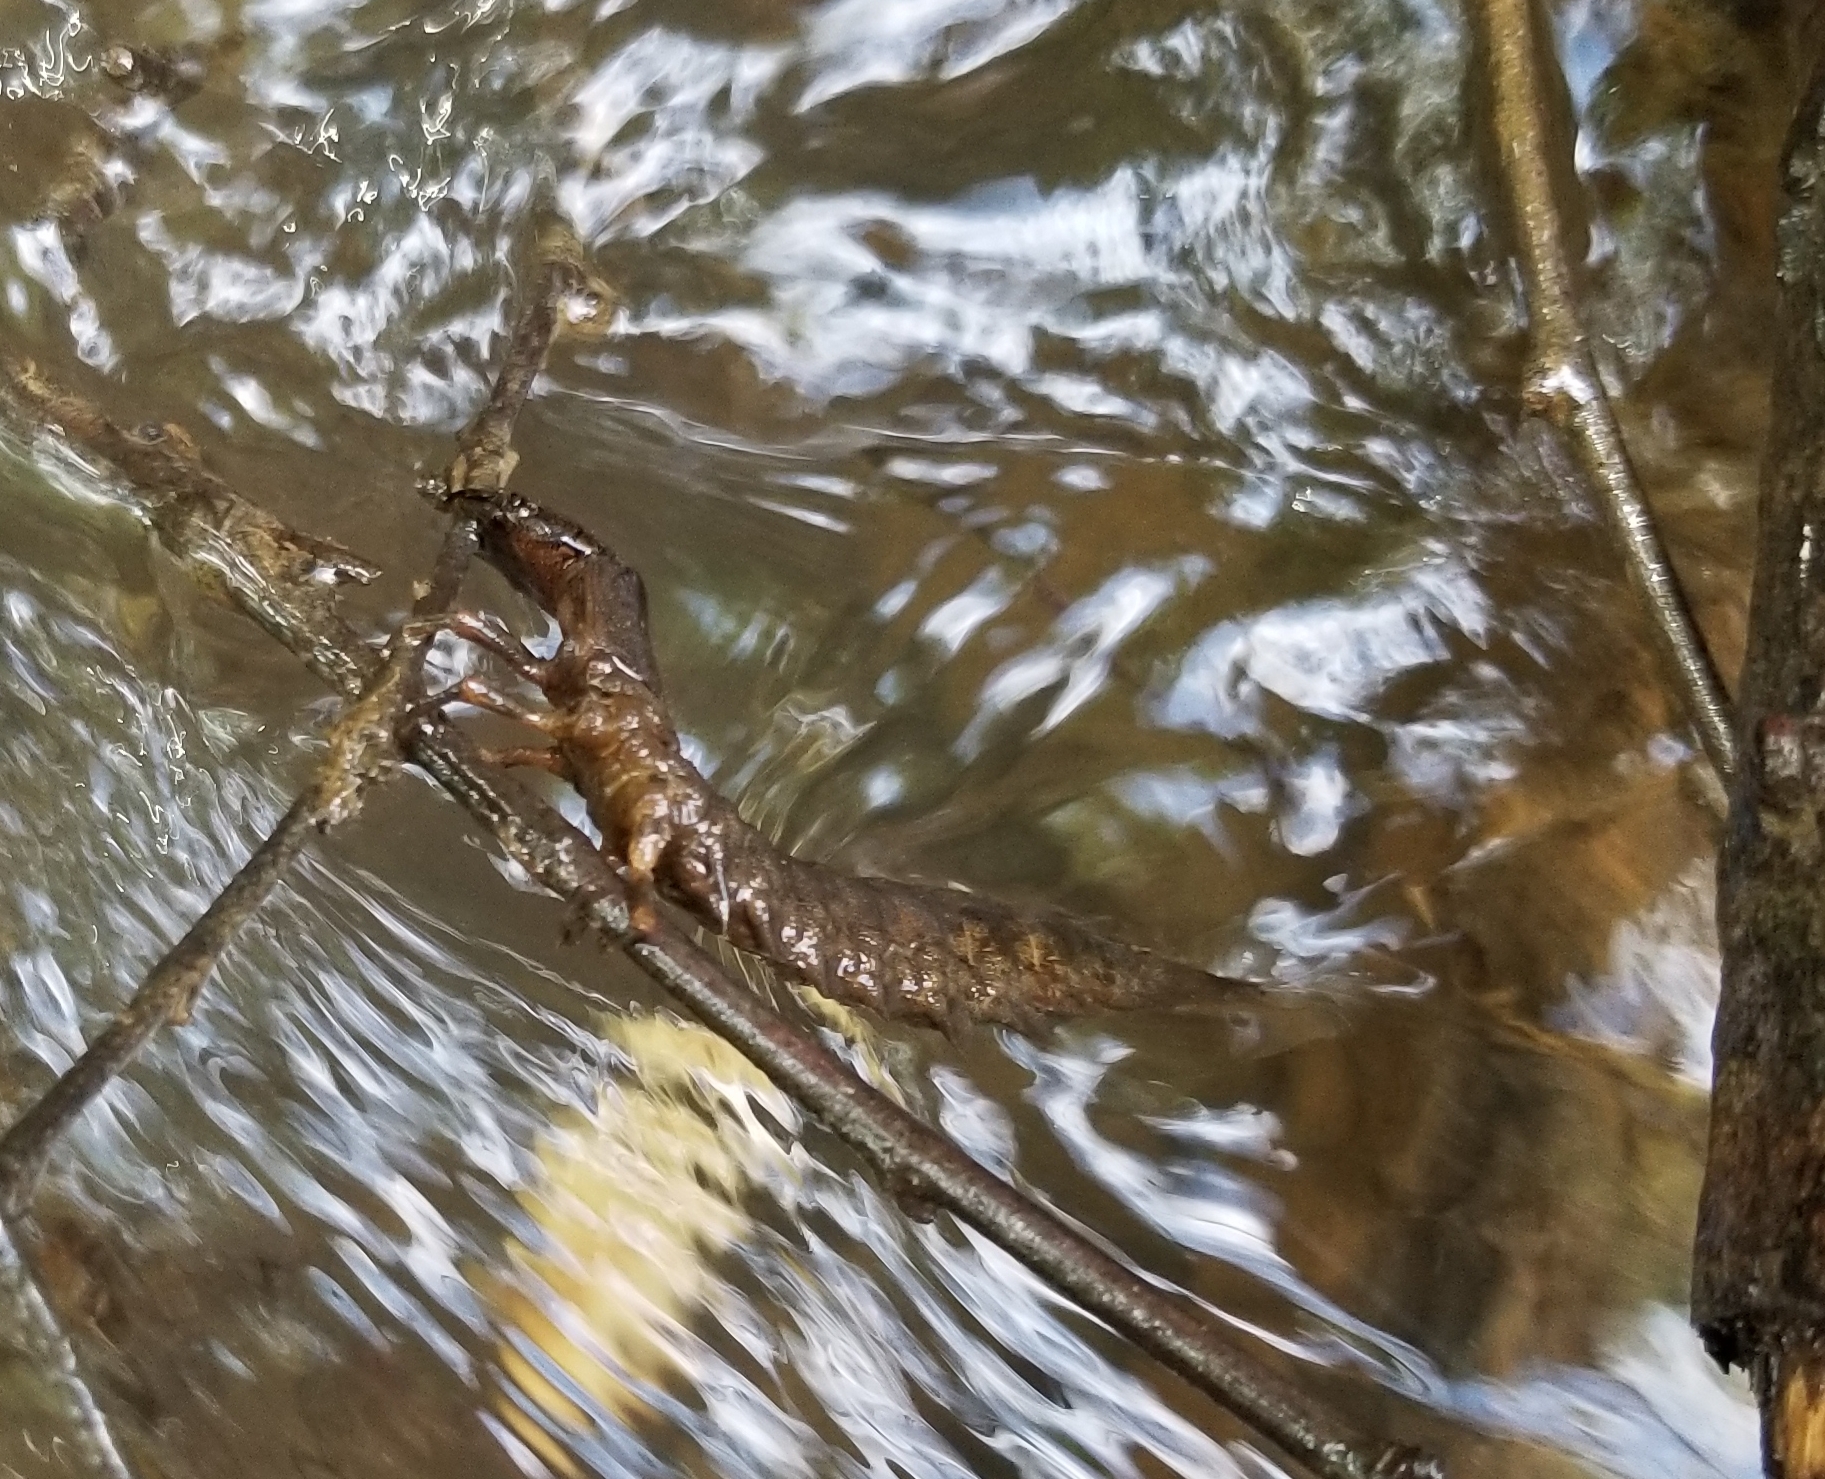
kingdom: Animalia
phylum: Arthropoda
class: Insecta
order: Megaloptera
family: Corydalidae
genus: Corydalus
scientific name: Corydalus cornutus
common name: Dobsonfly
